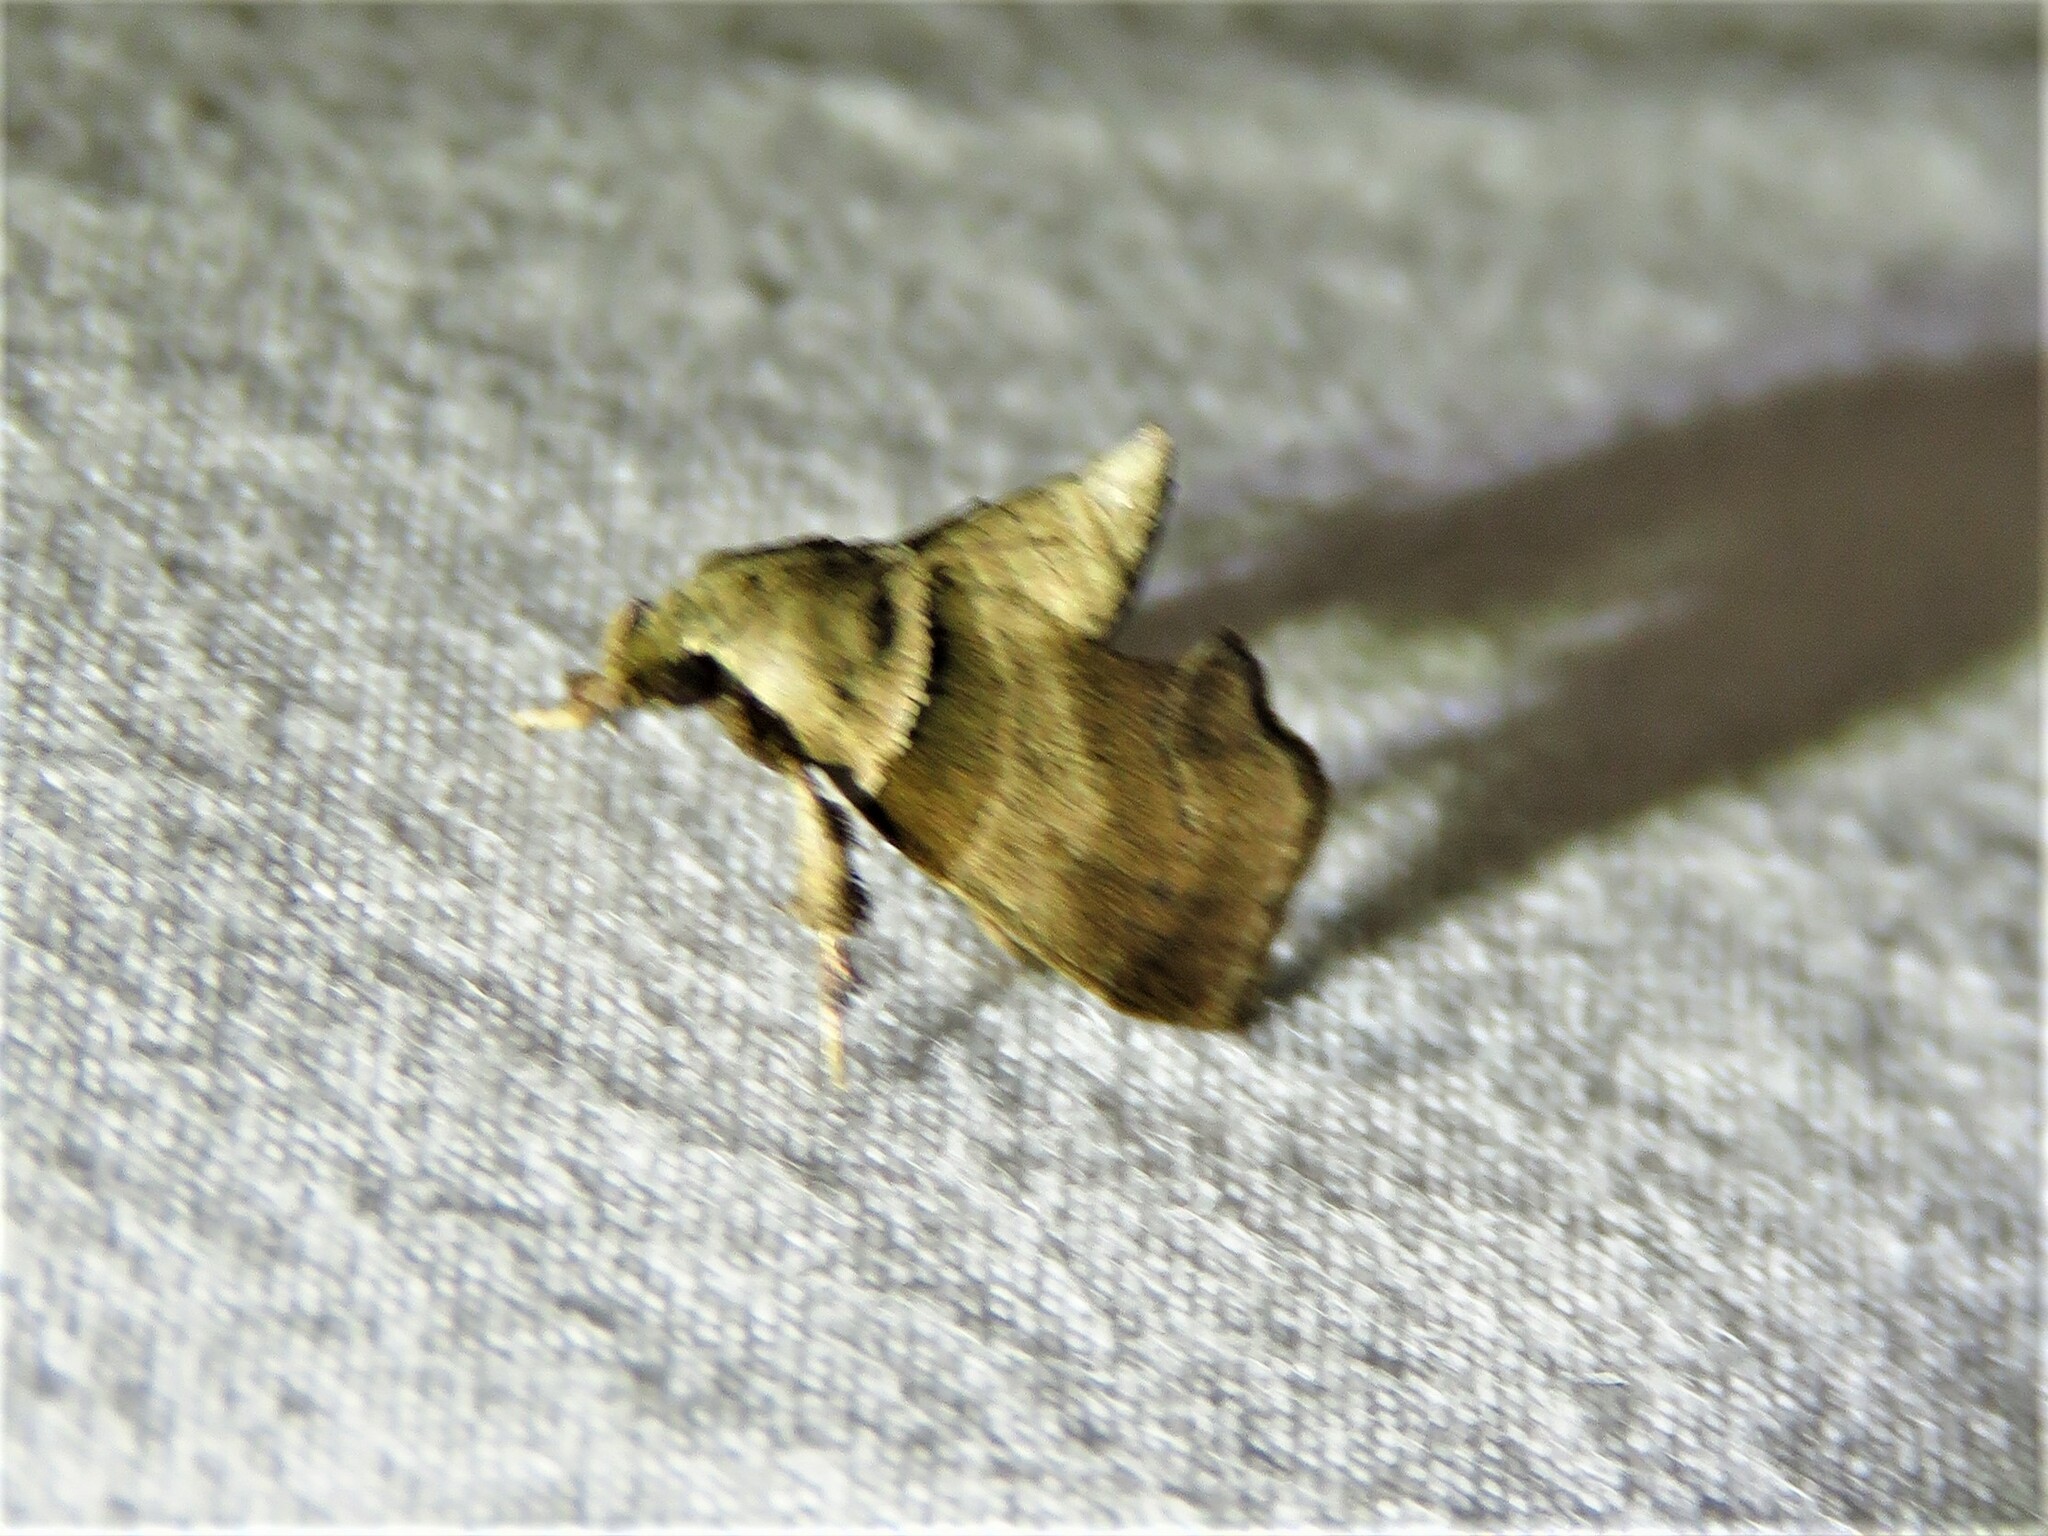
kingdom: Animalia
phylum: Arthropoda
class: Insecta
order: Lepidoptera
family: Pyralidae
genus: Tosale
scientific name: Tosale aucta
